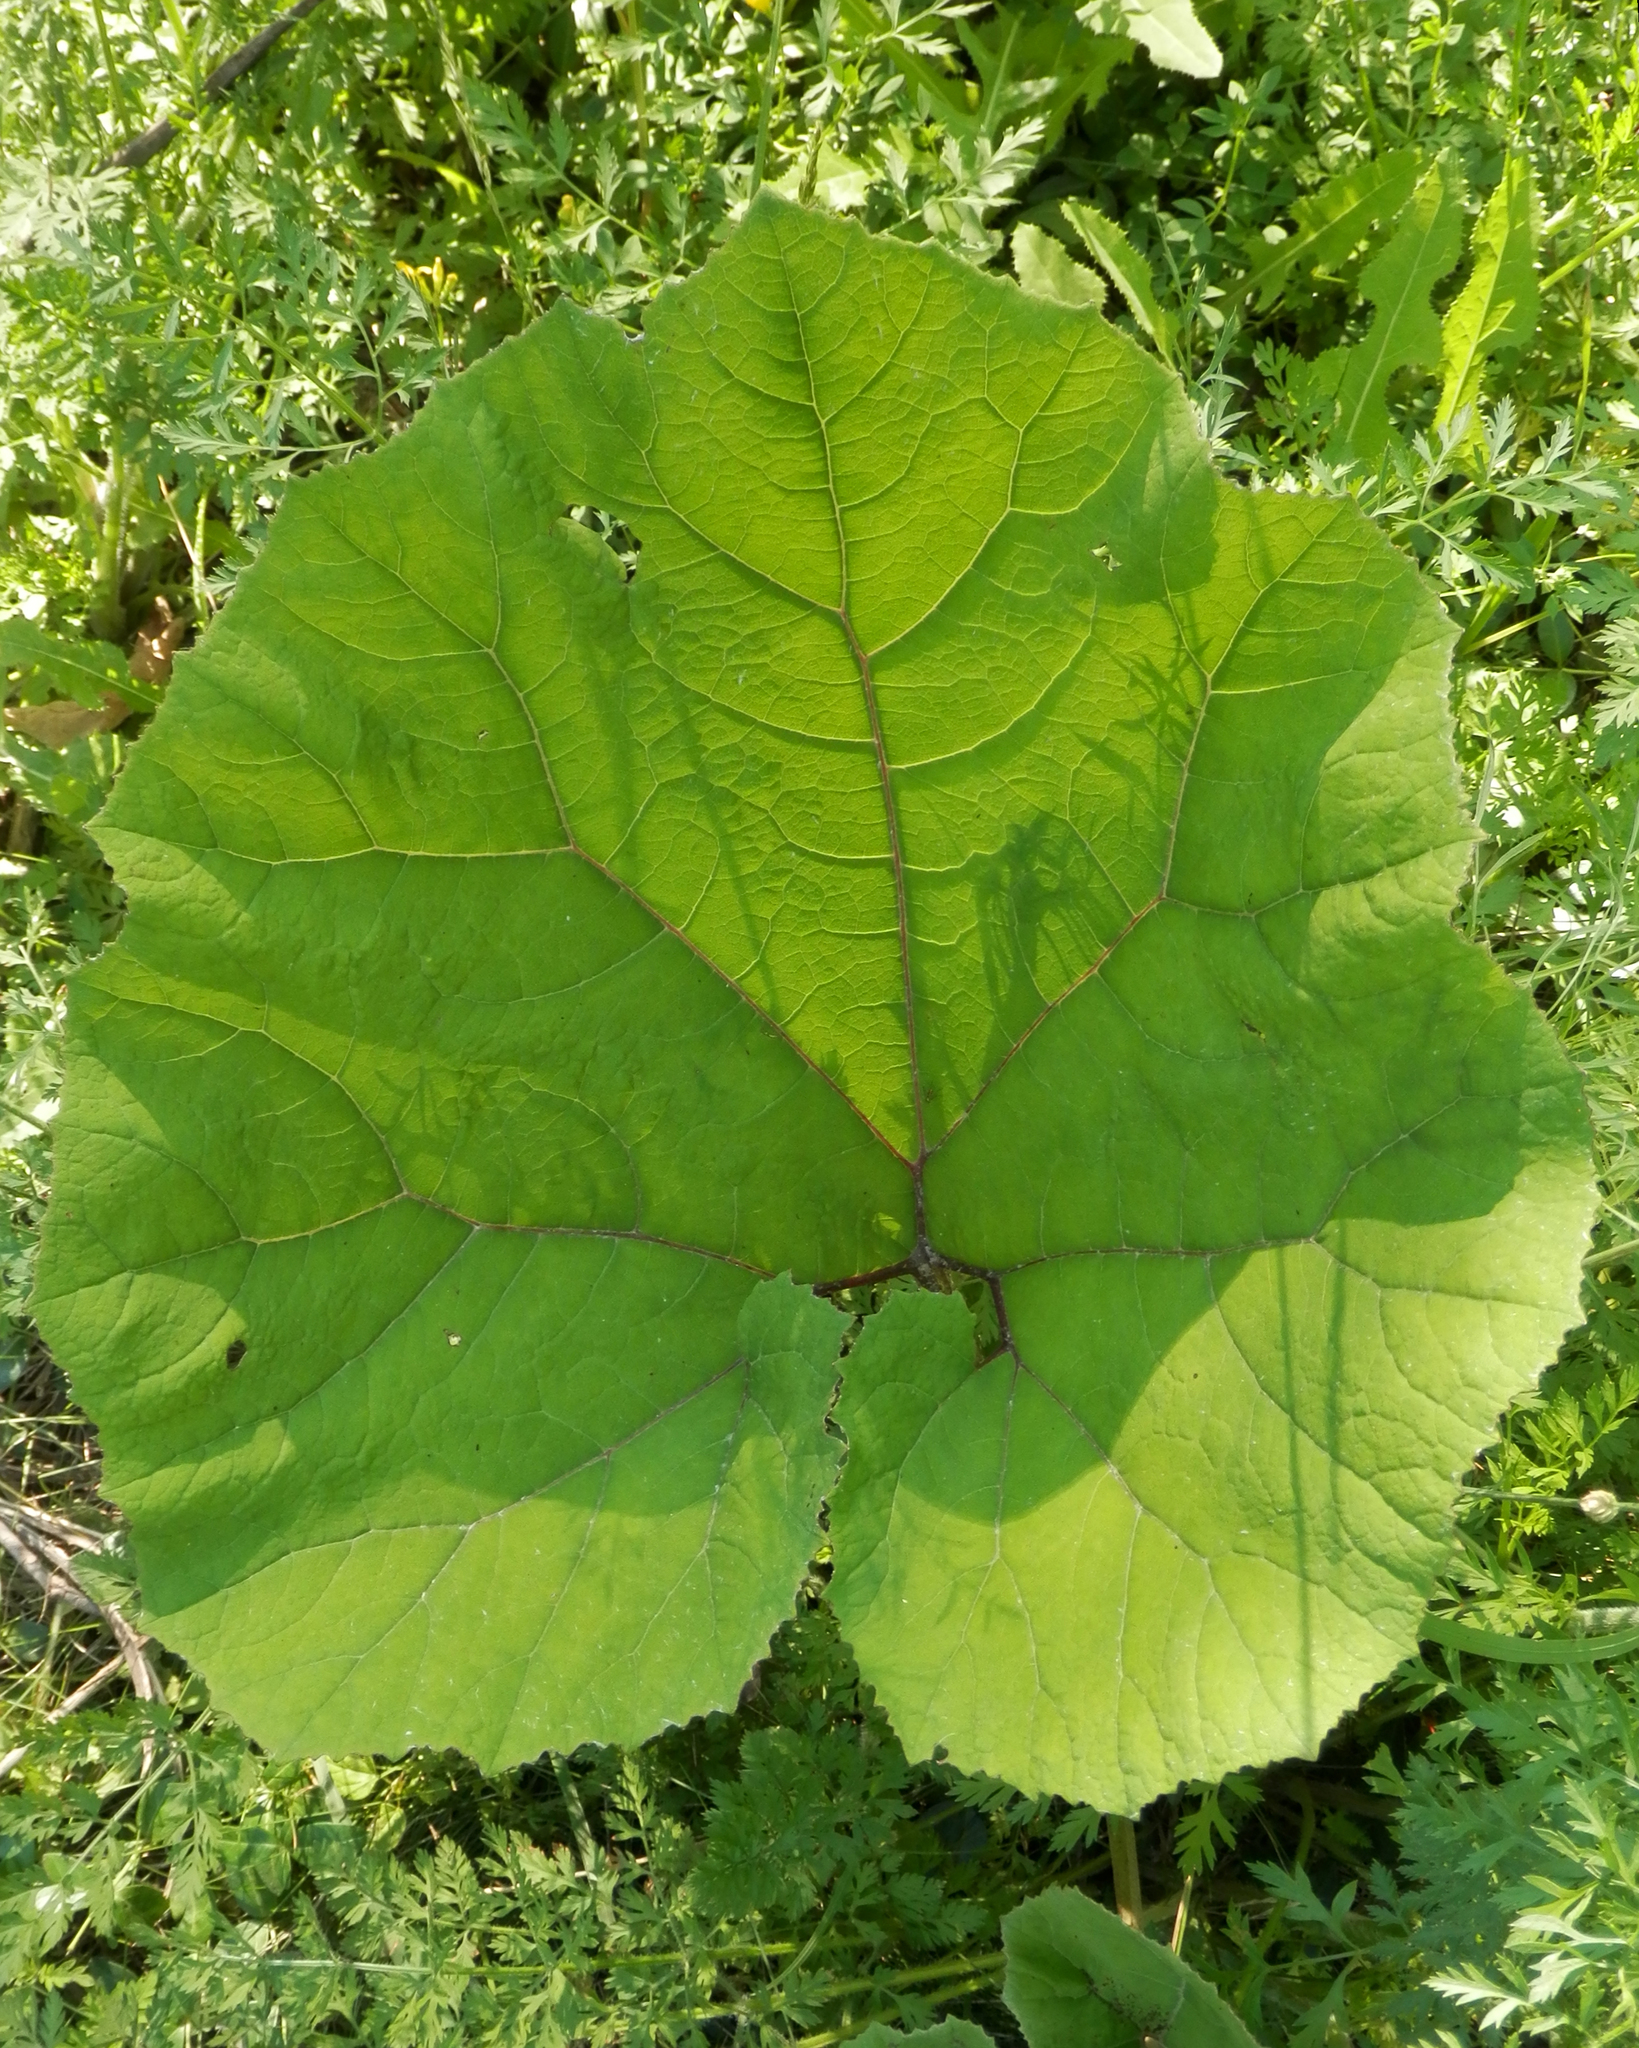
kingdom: Plantae
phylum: Tracheophyta
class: Magnoliopsida
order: Asterales
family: Asteraceae
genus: Tussilago
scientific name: Tussilago farfara
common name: Coltsfoot
